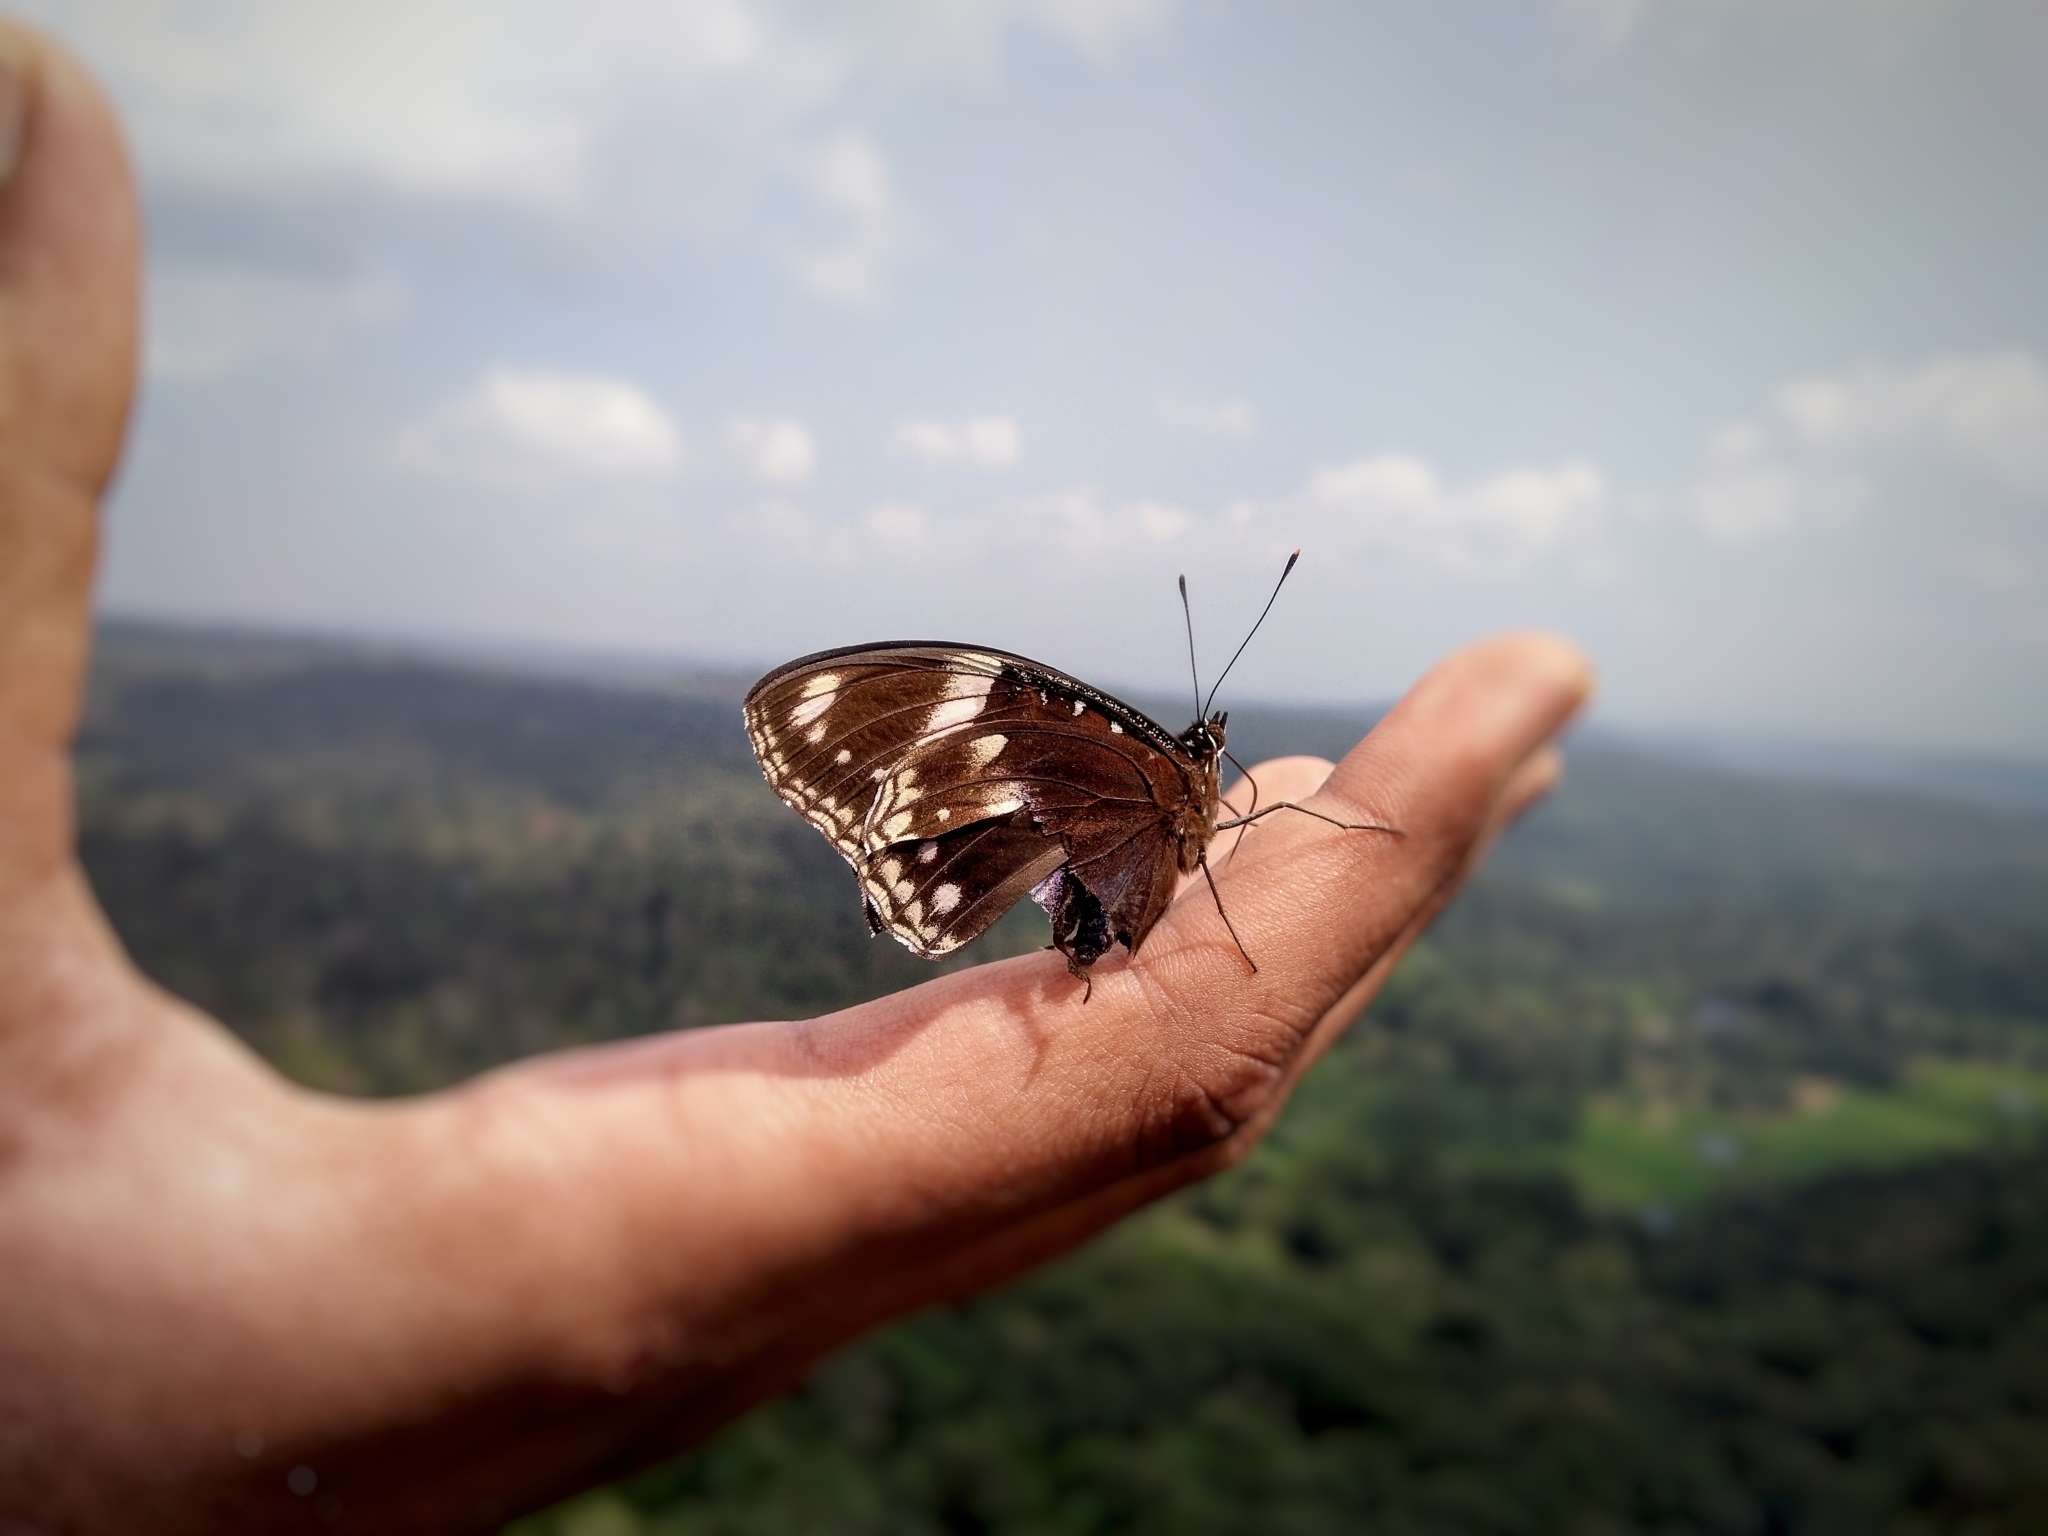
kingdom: Animalia
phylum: Arthropoda
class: Insecta
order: Lepidoptera
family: Nymphalidae
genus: Hypolimnas
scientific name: Hypolimnas bolina
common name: Great eggfly
